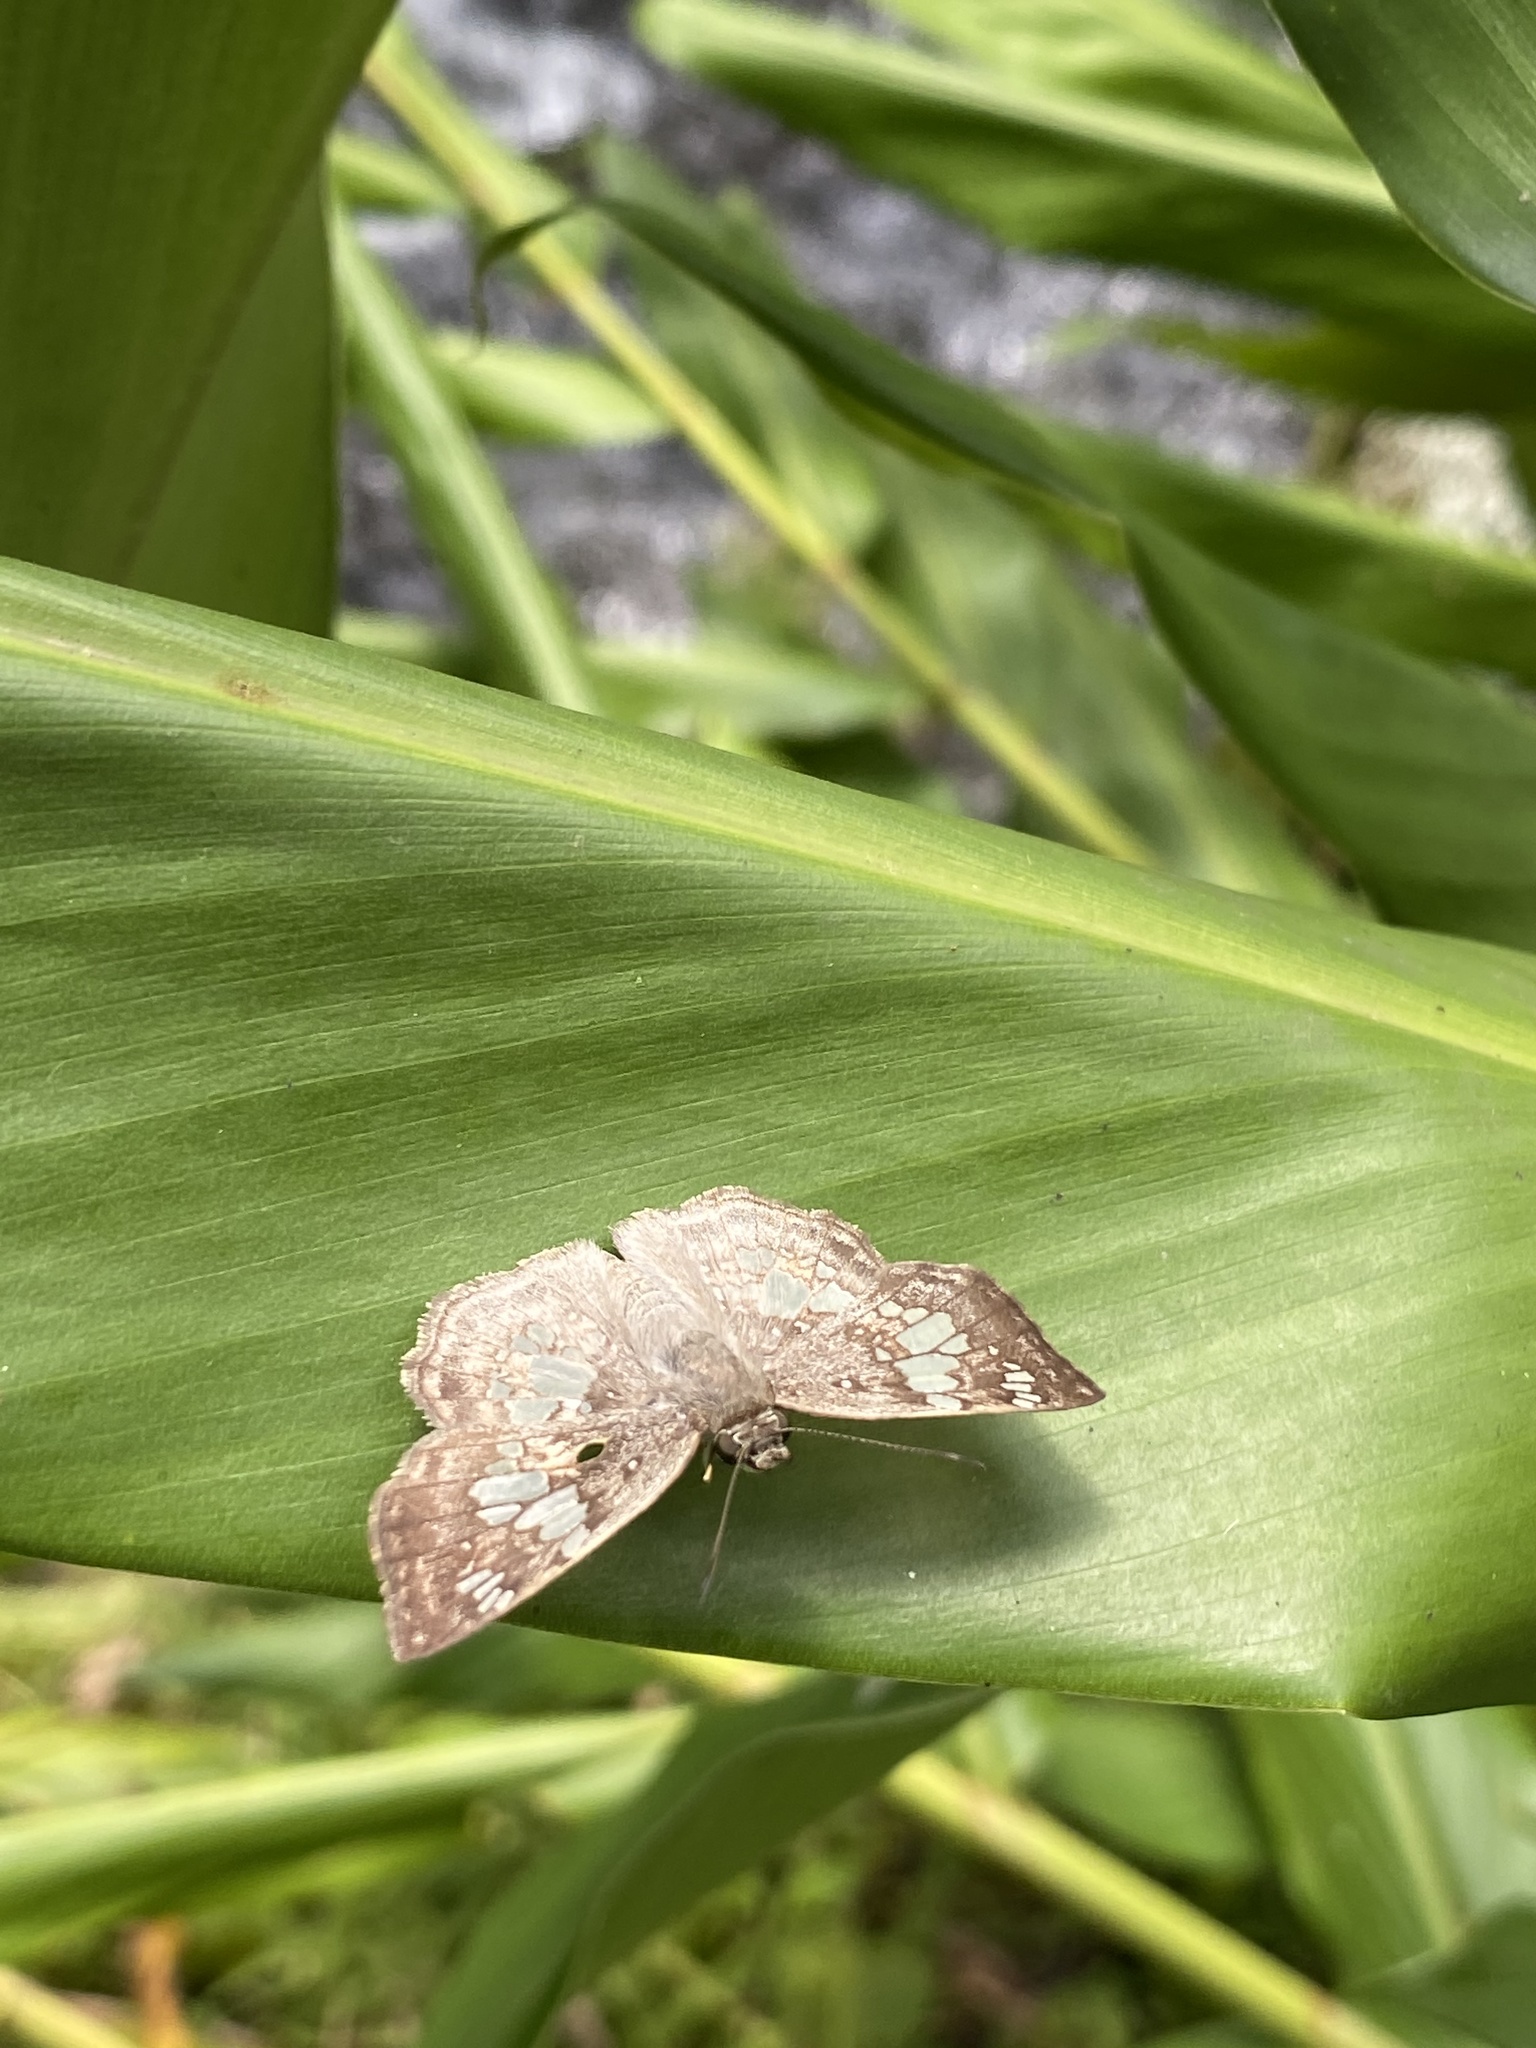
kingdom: Animalia
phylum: Arthropoda
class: Insecta
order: Lepidoptera
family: Hesperiidae
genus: Xenophanes
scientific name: Xenophanes tryxus
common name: Glassy-winged skipper
